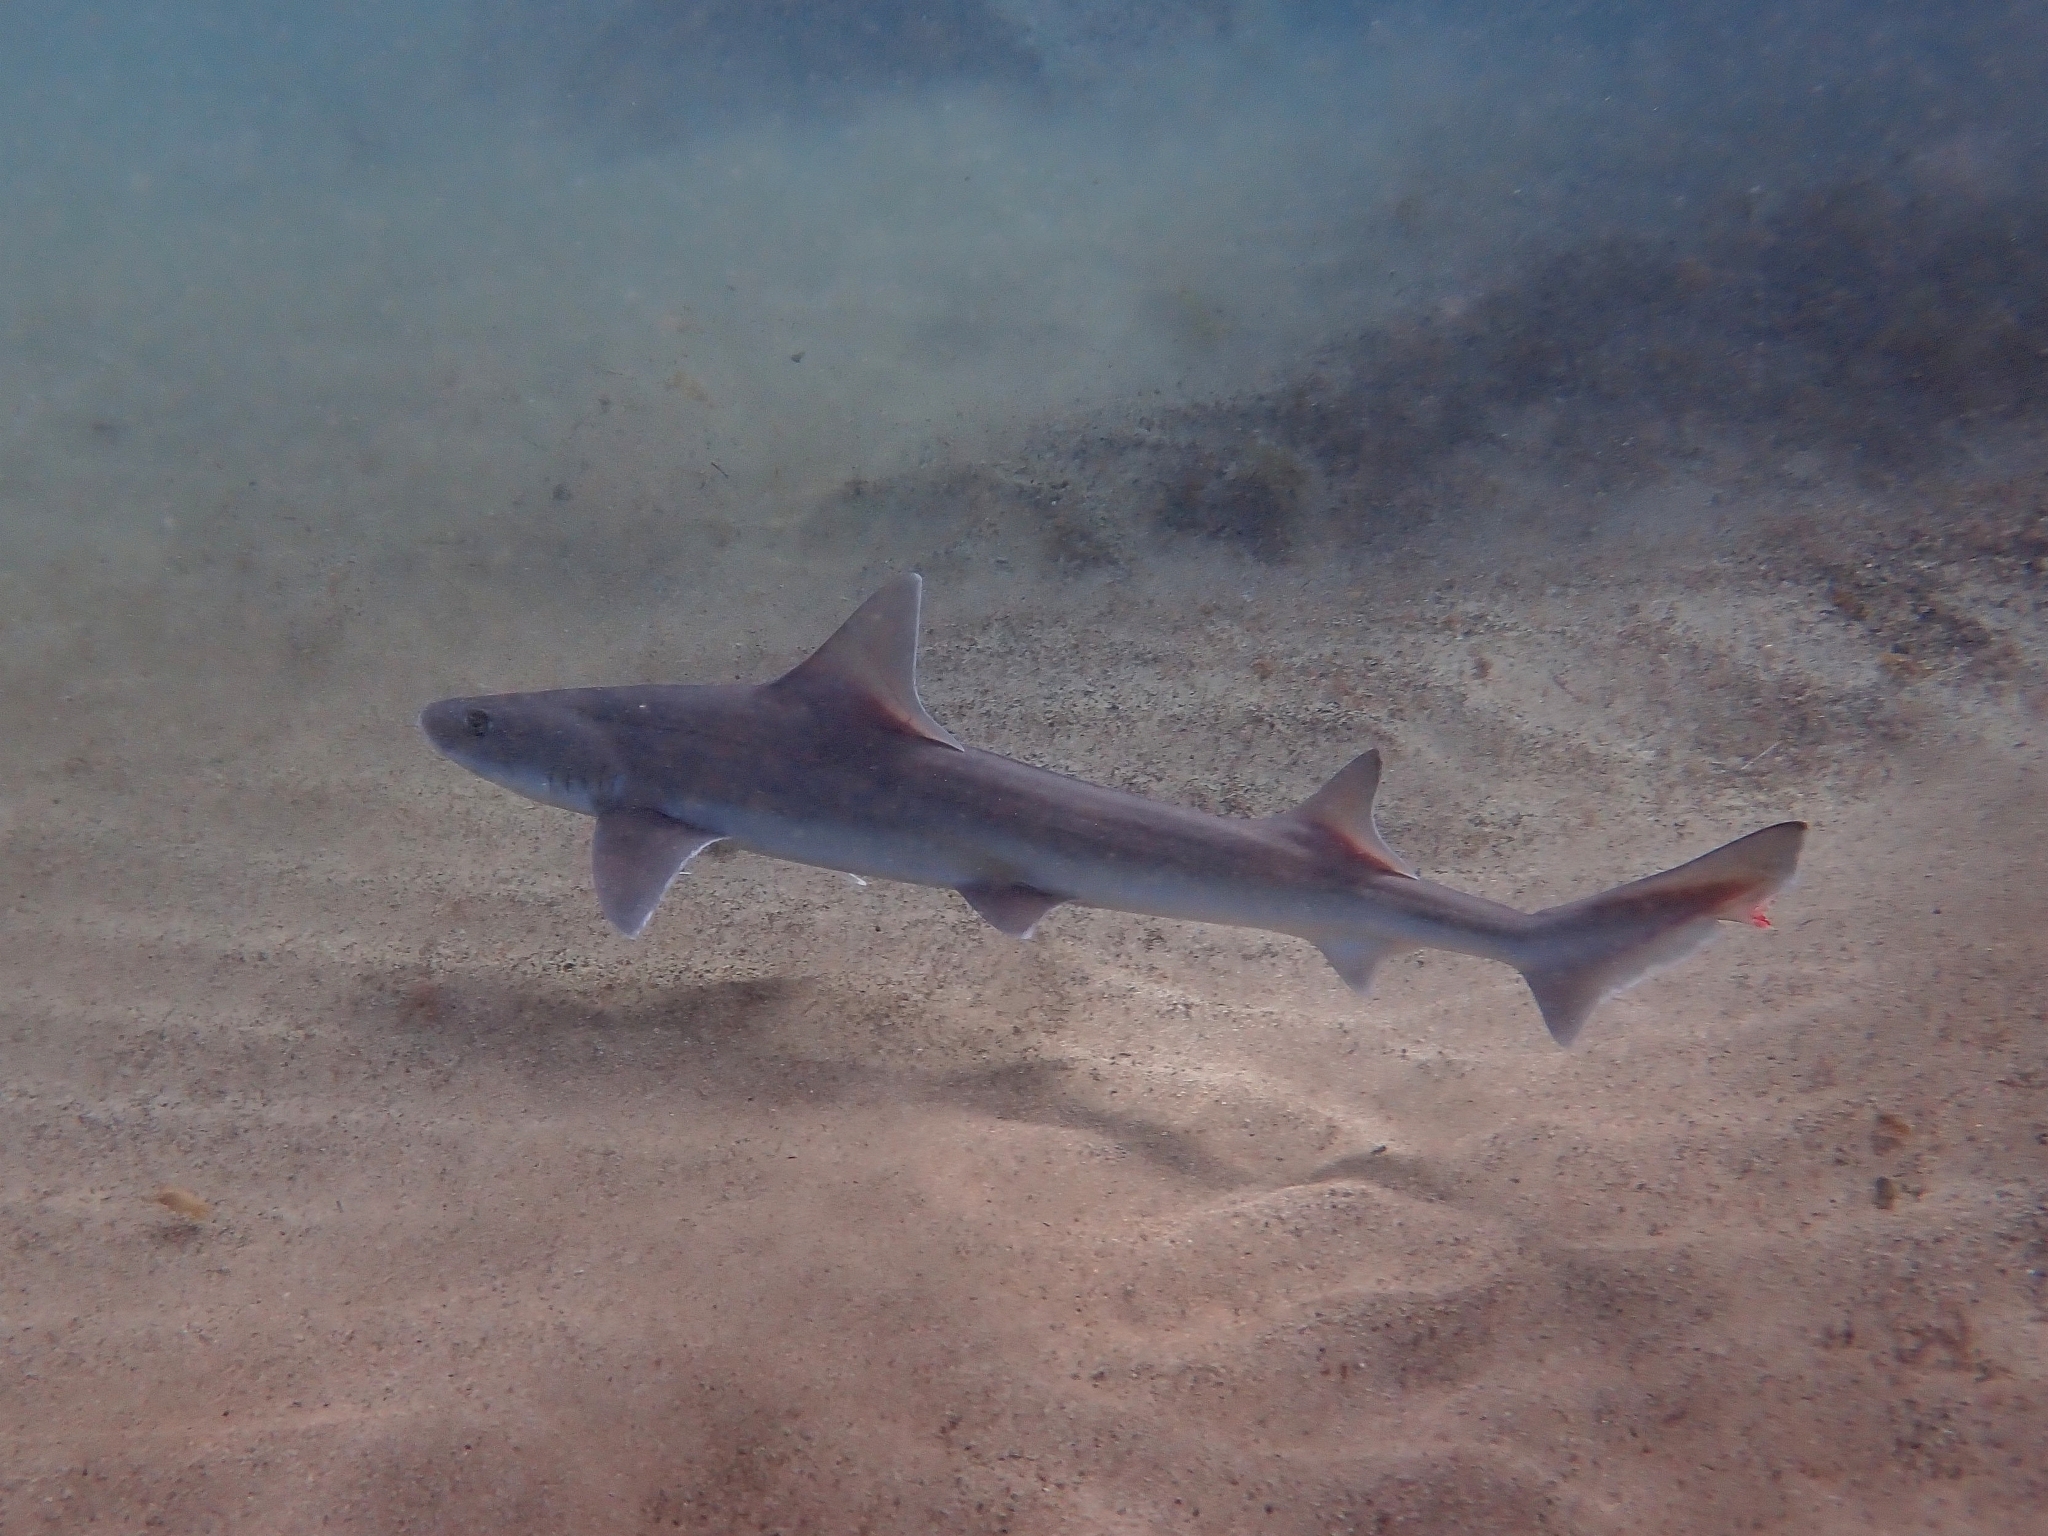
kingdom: Animalia
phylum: Chordata
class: Elasmobranchii
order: Carcharhiniformes
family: Triakidae
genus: Mustelus
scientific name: Mustelus mustelus
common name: Smooth-hound
